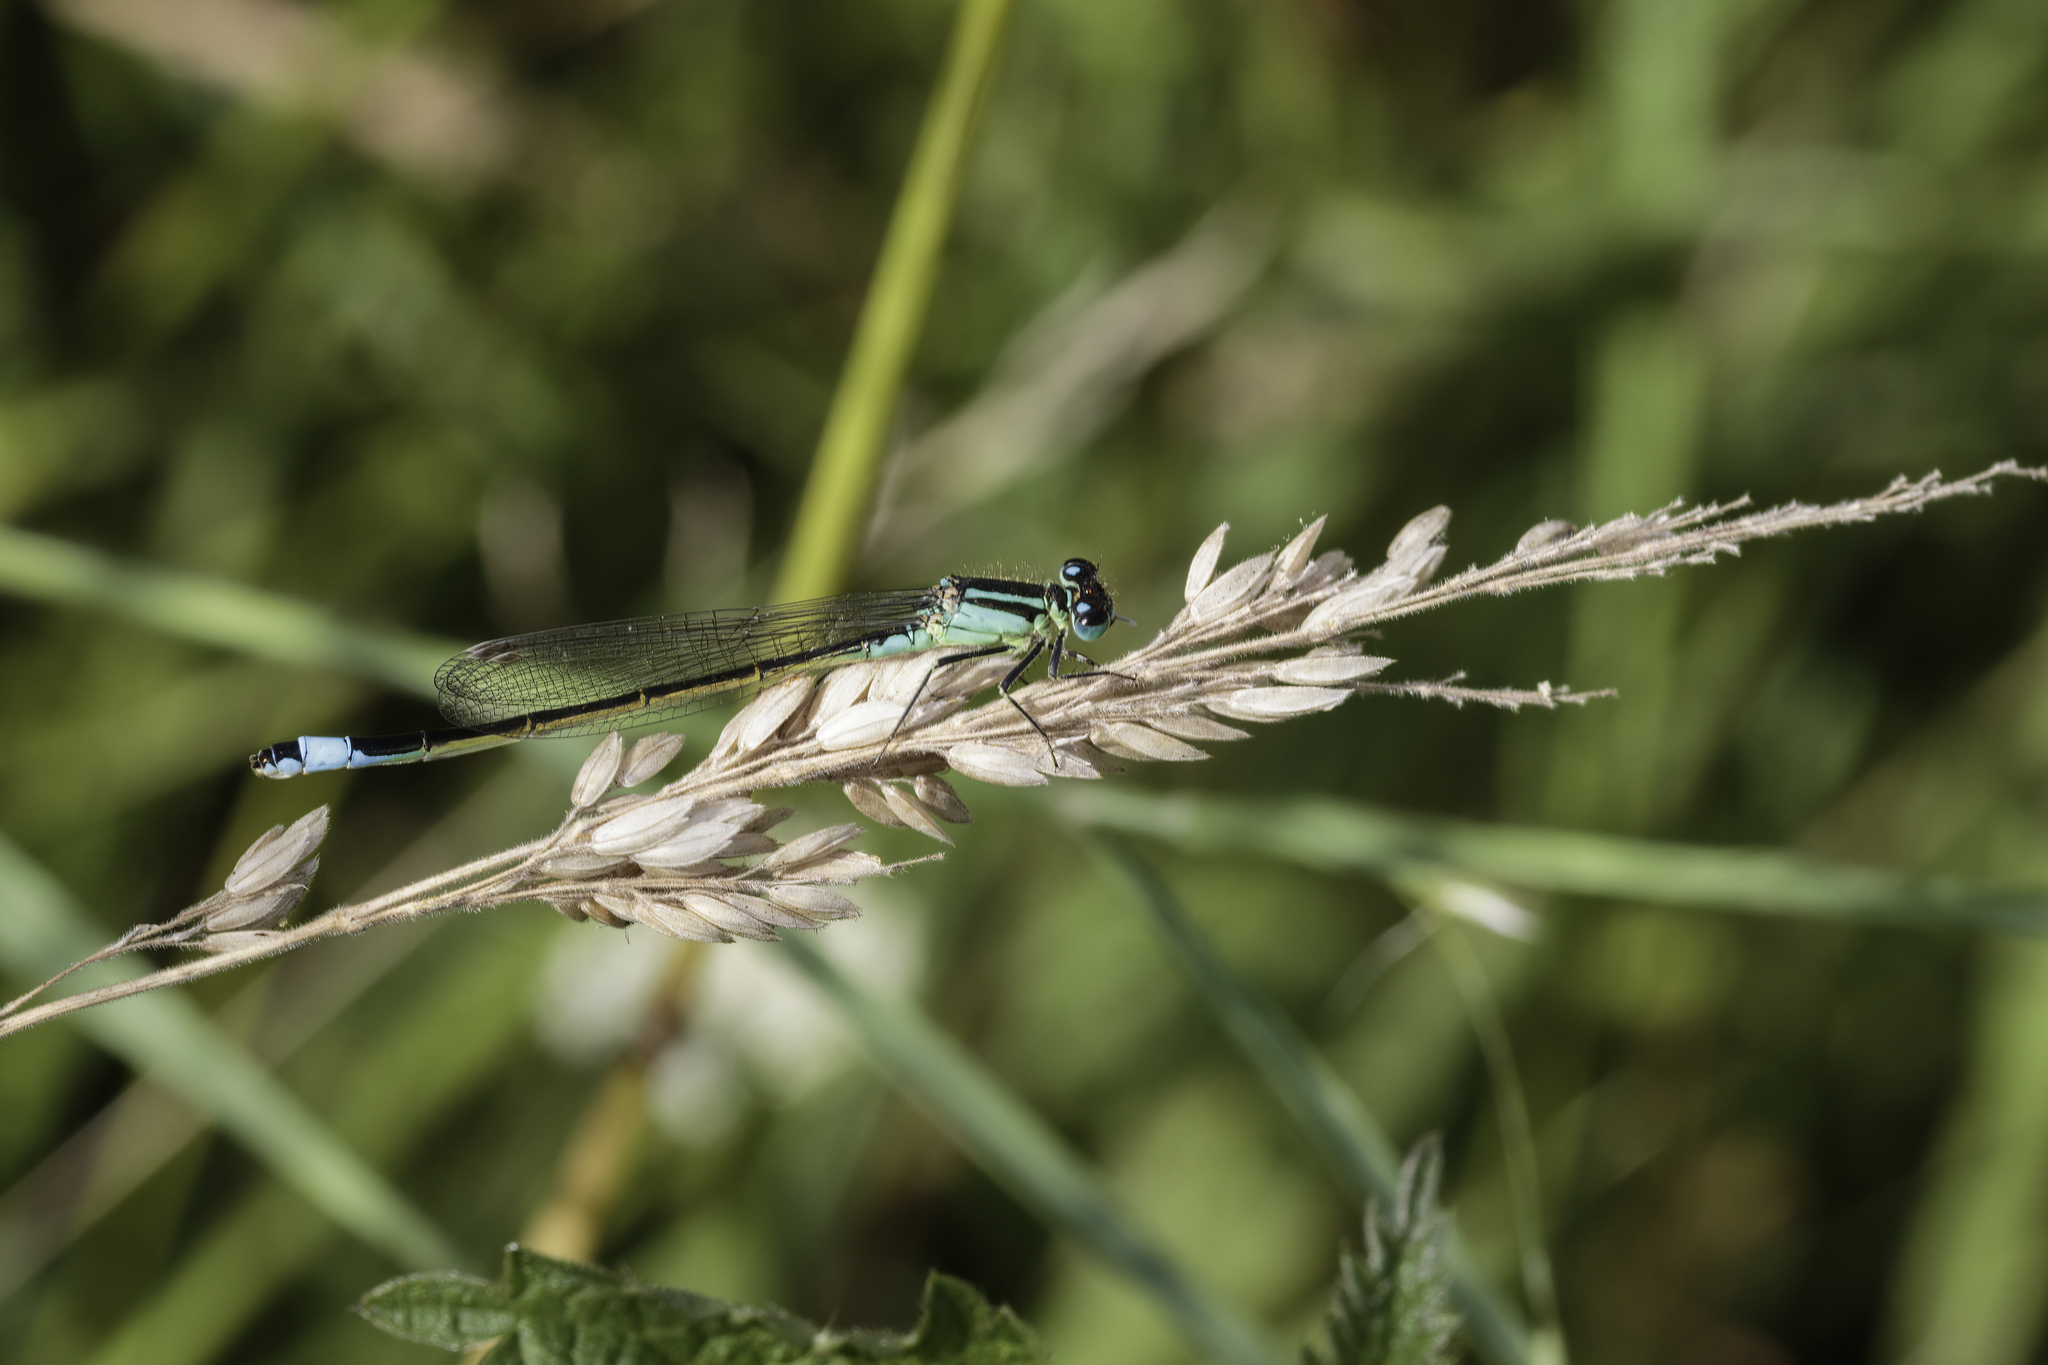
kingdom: Animalia
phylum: Arthropoda
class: Insecta
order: Odonata
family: Coenagrionidae
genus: Ischnura
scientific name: Ischnura elegans
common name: Blue-tailed damselfly
